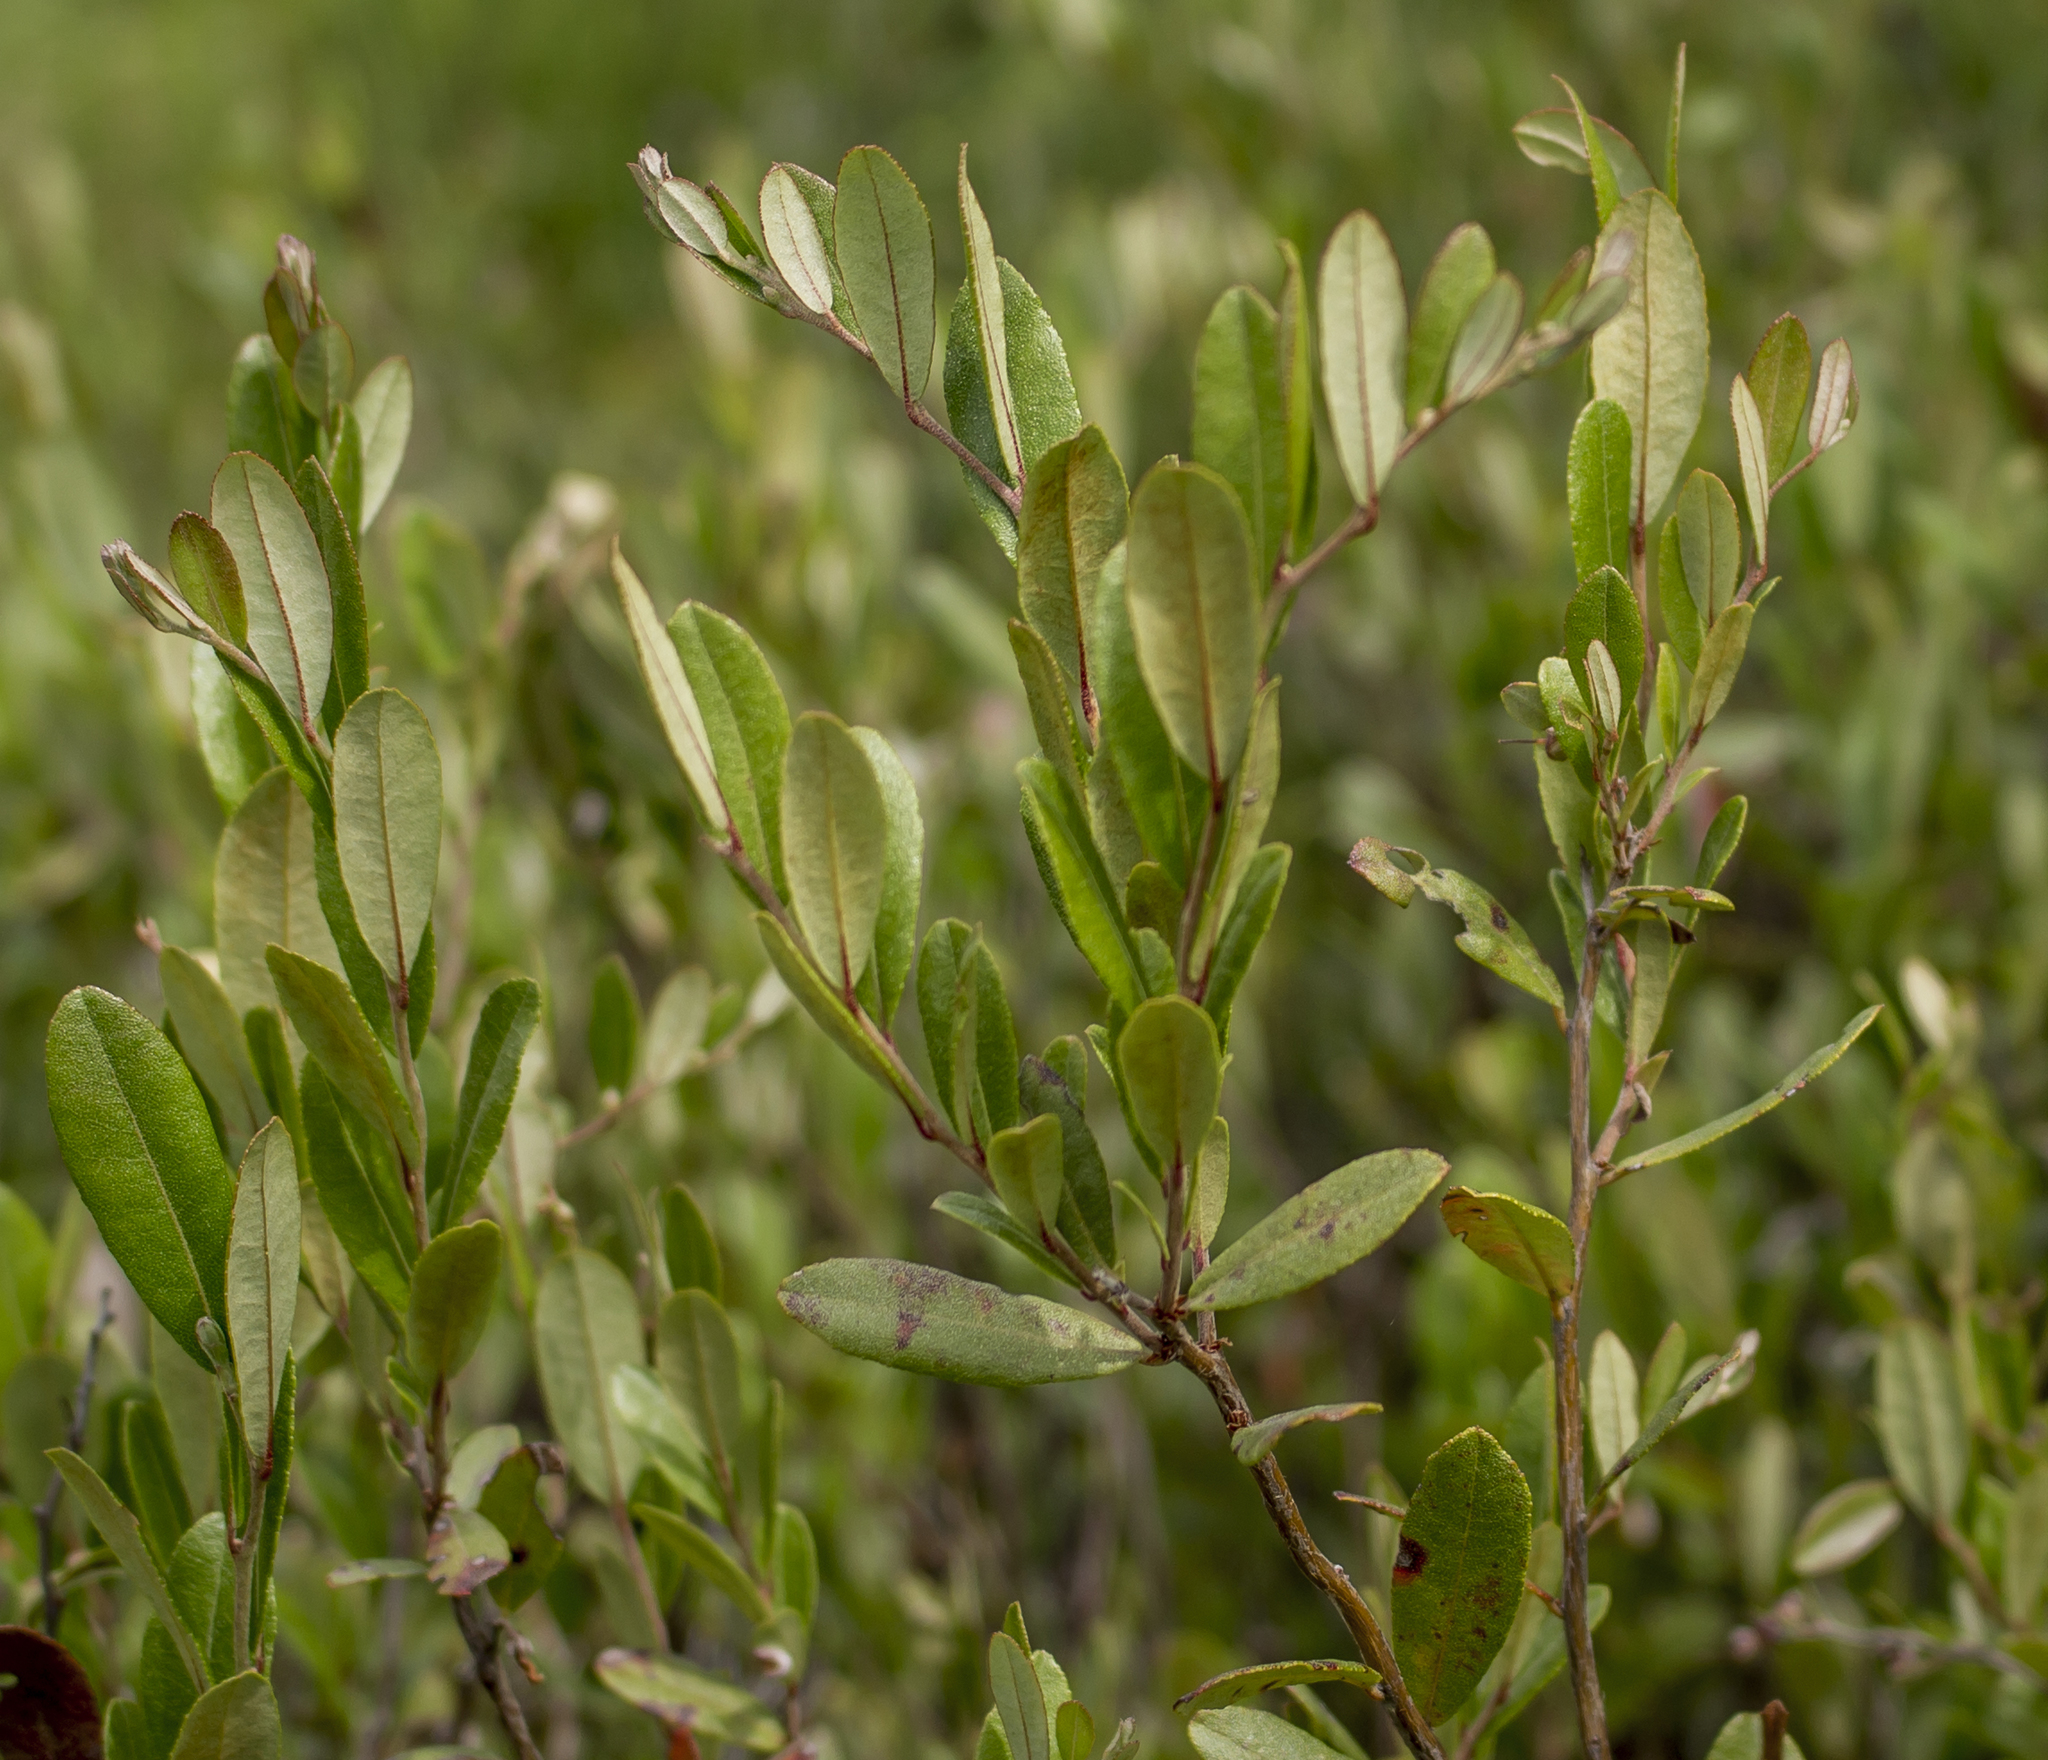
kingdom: Plantae
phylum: Tracheophyta
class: Magnoliopsida
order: Ericales
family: Ericaceae
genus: Chamaedaphne
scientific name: Chamaedaphne calyculata
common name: Leatherleaf
